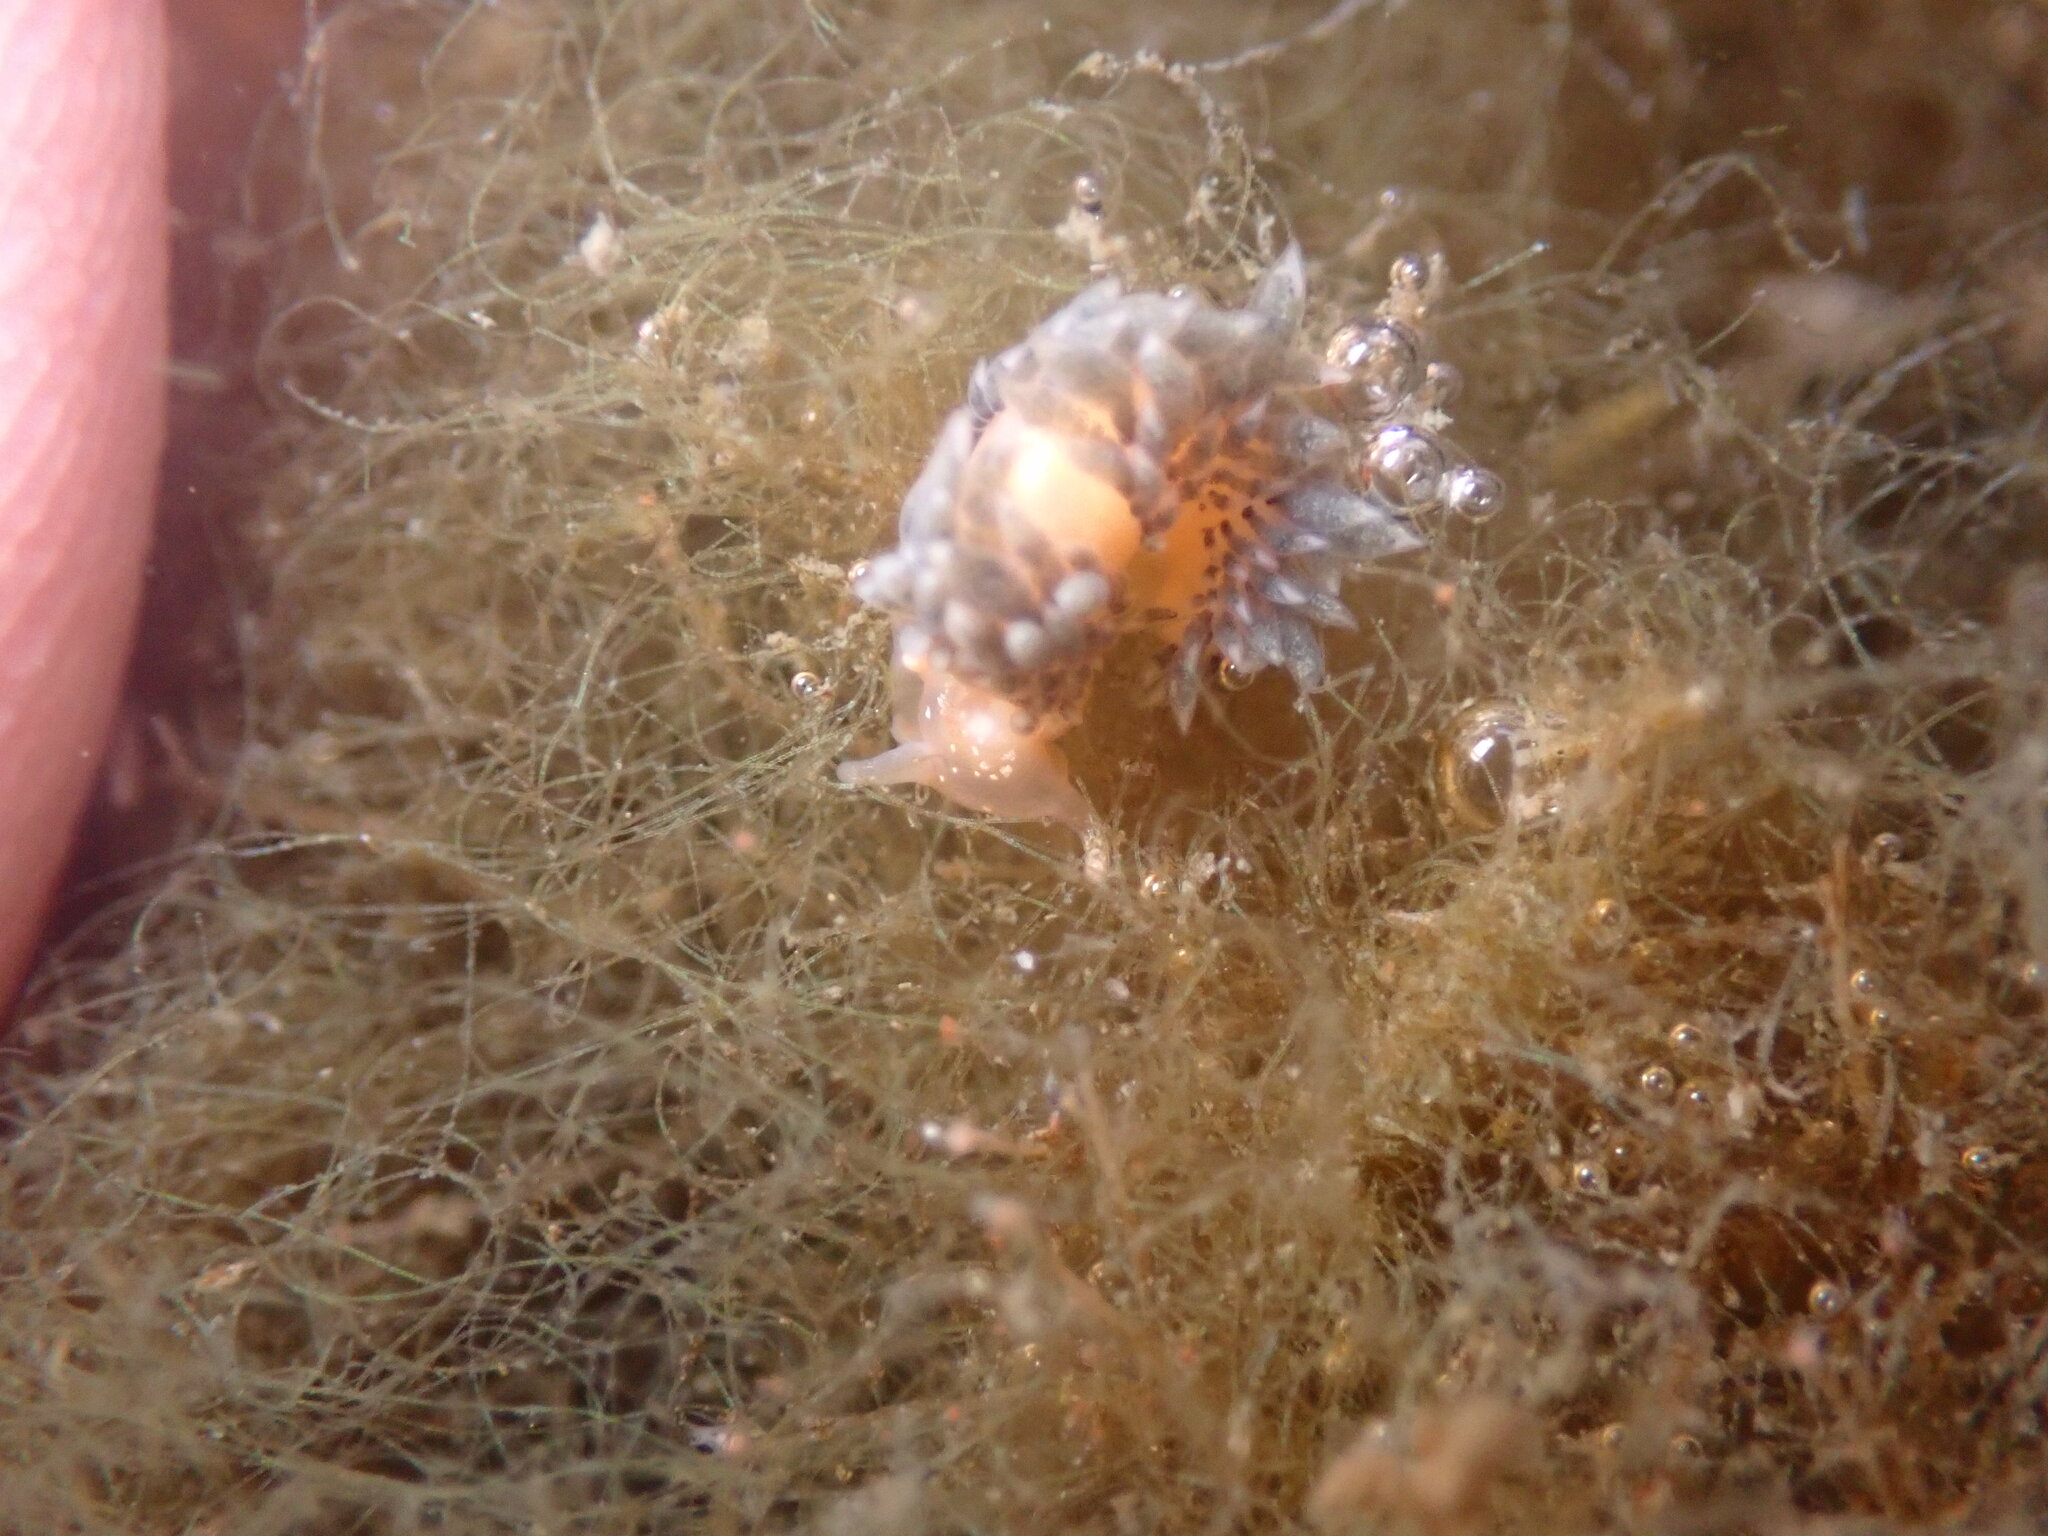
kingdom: Animalia
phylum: Mollusca
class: Gastropoda
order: Nudibranchia
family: Facelinidae
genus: Emarcusia
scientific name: Emarcusia morroensis
